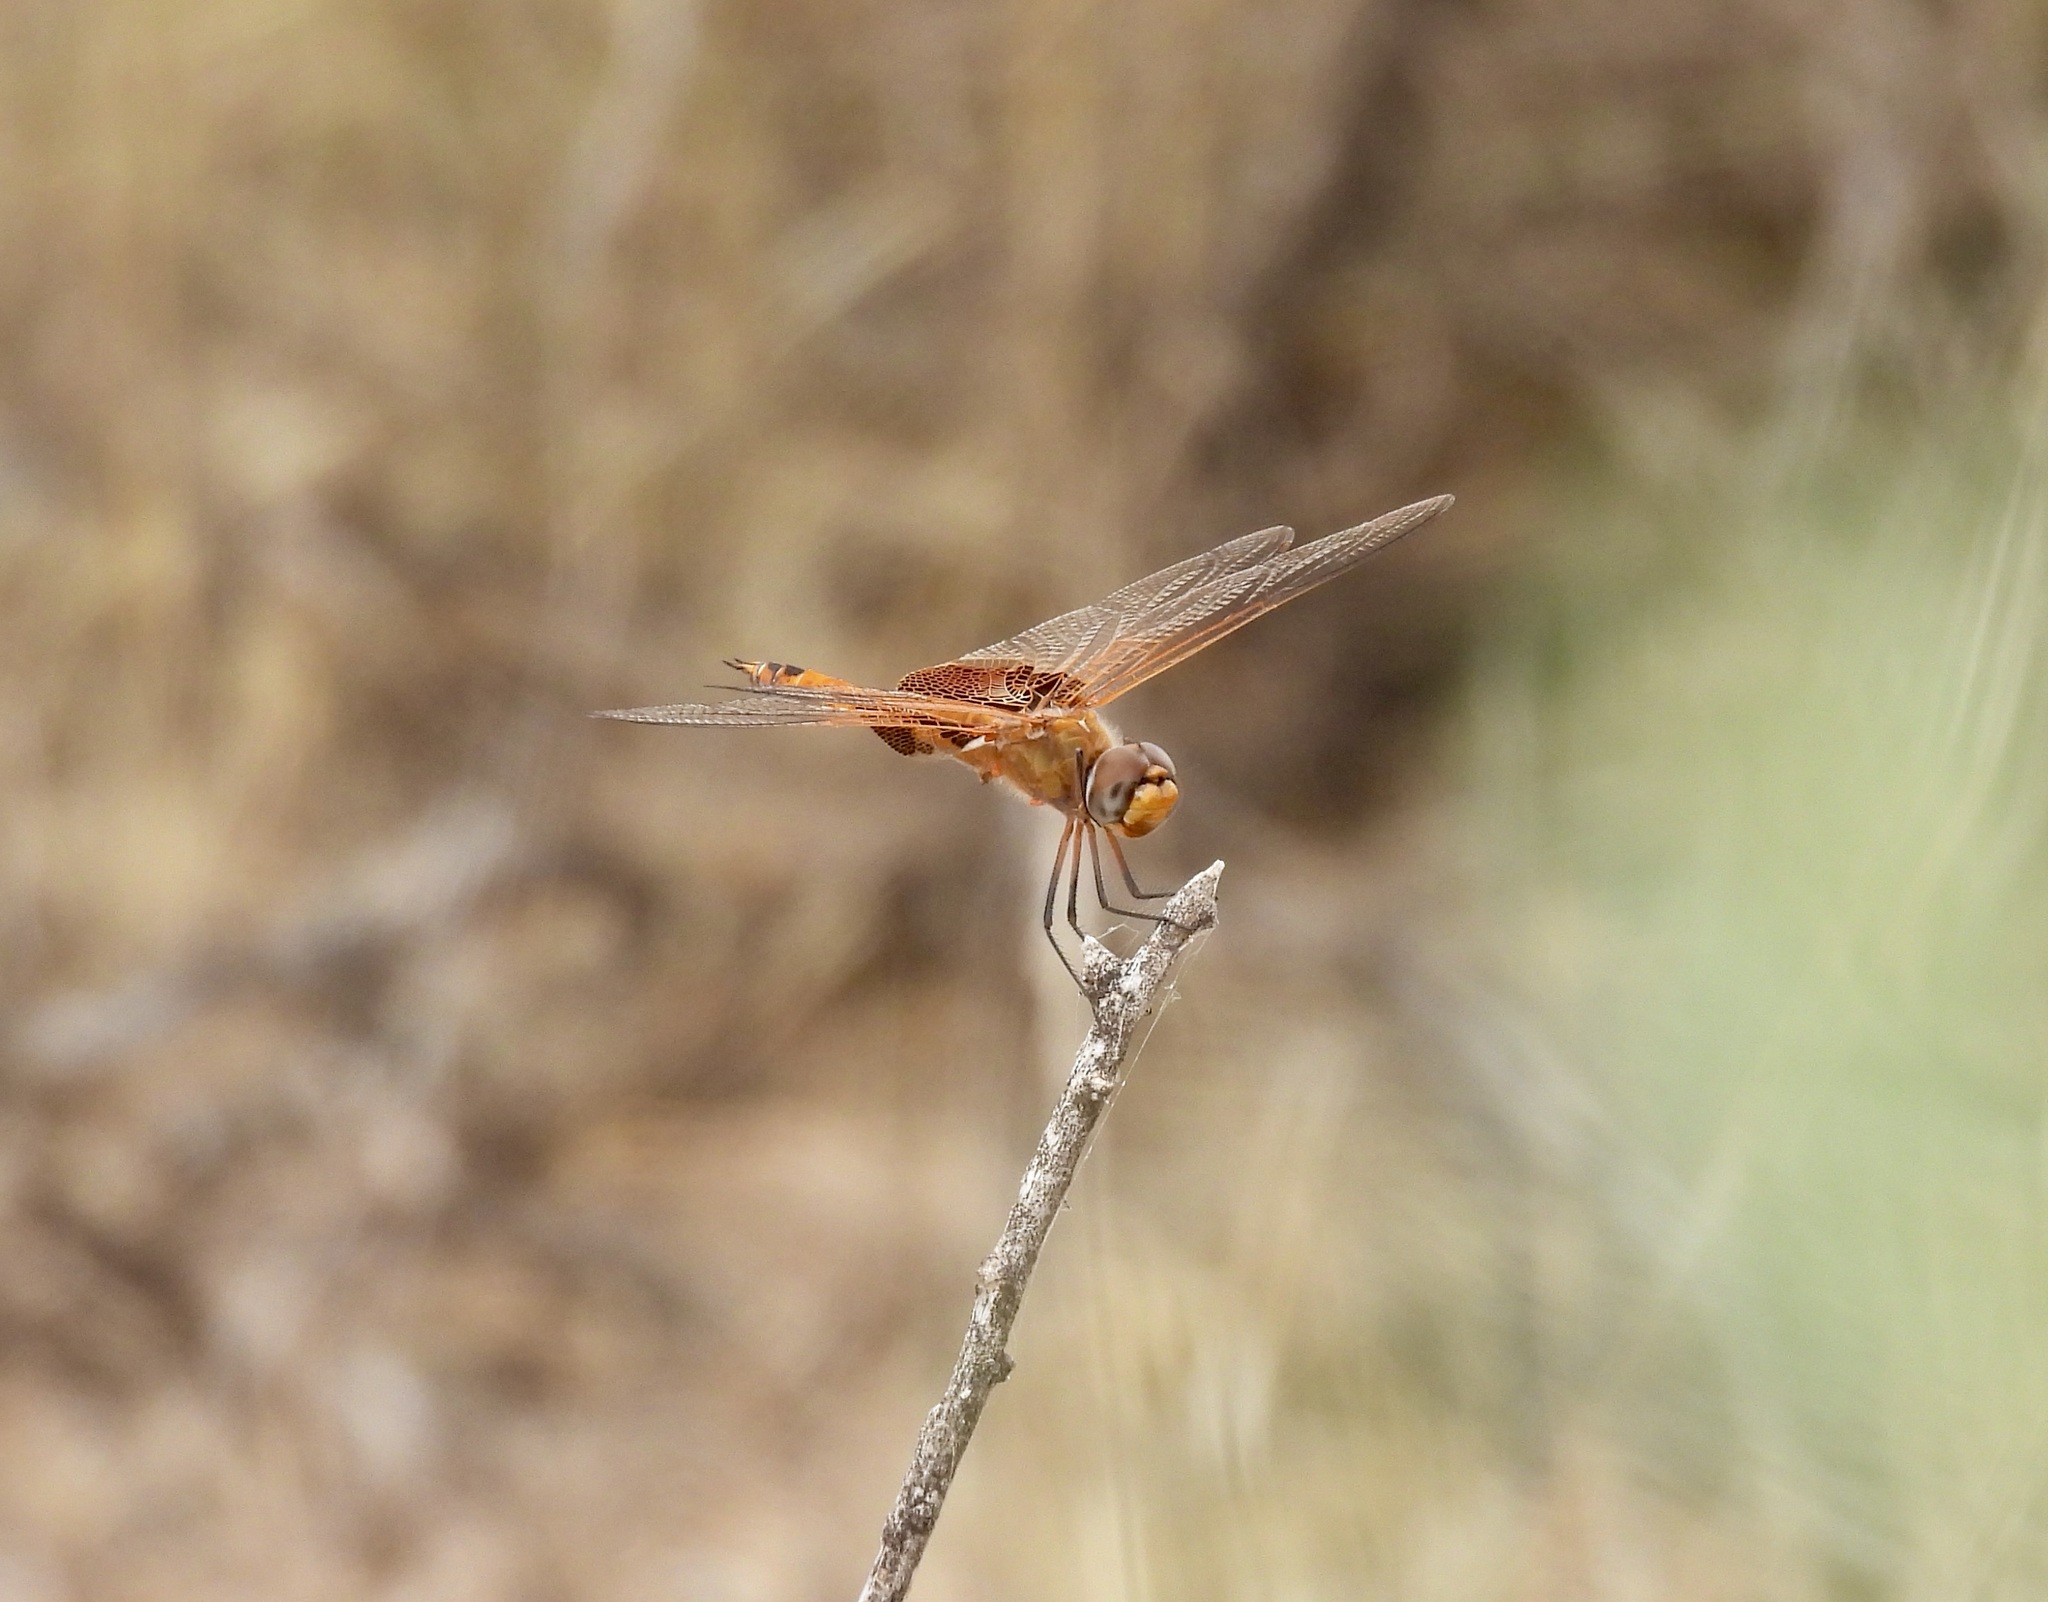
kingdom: Animalia
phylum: Arthropoda
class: Insecta
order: Odonata
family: Libellulidae
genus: Tramea
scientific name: Tramea onusta
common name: Red saddlebags
